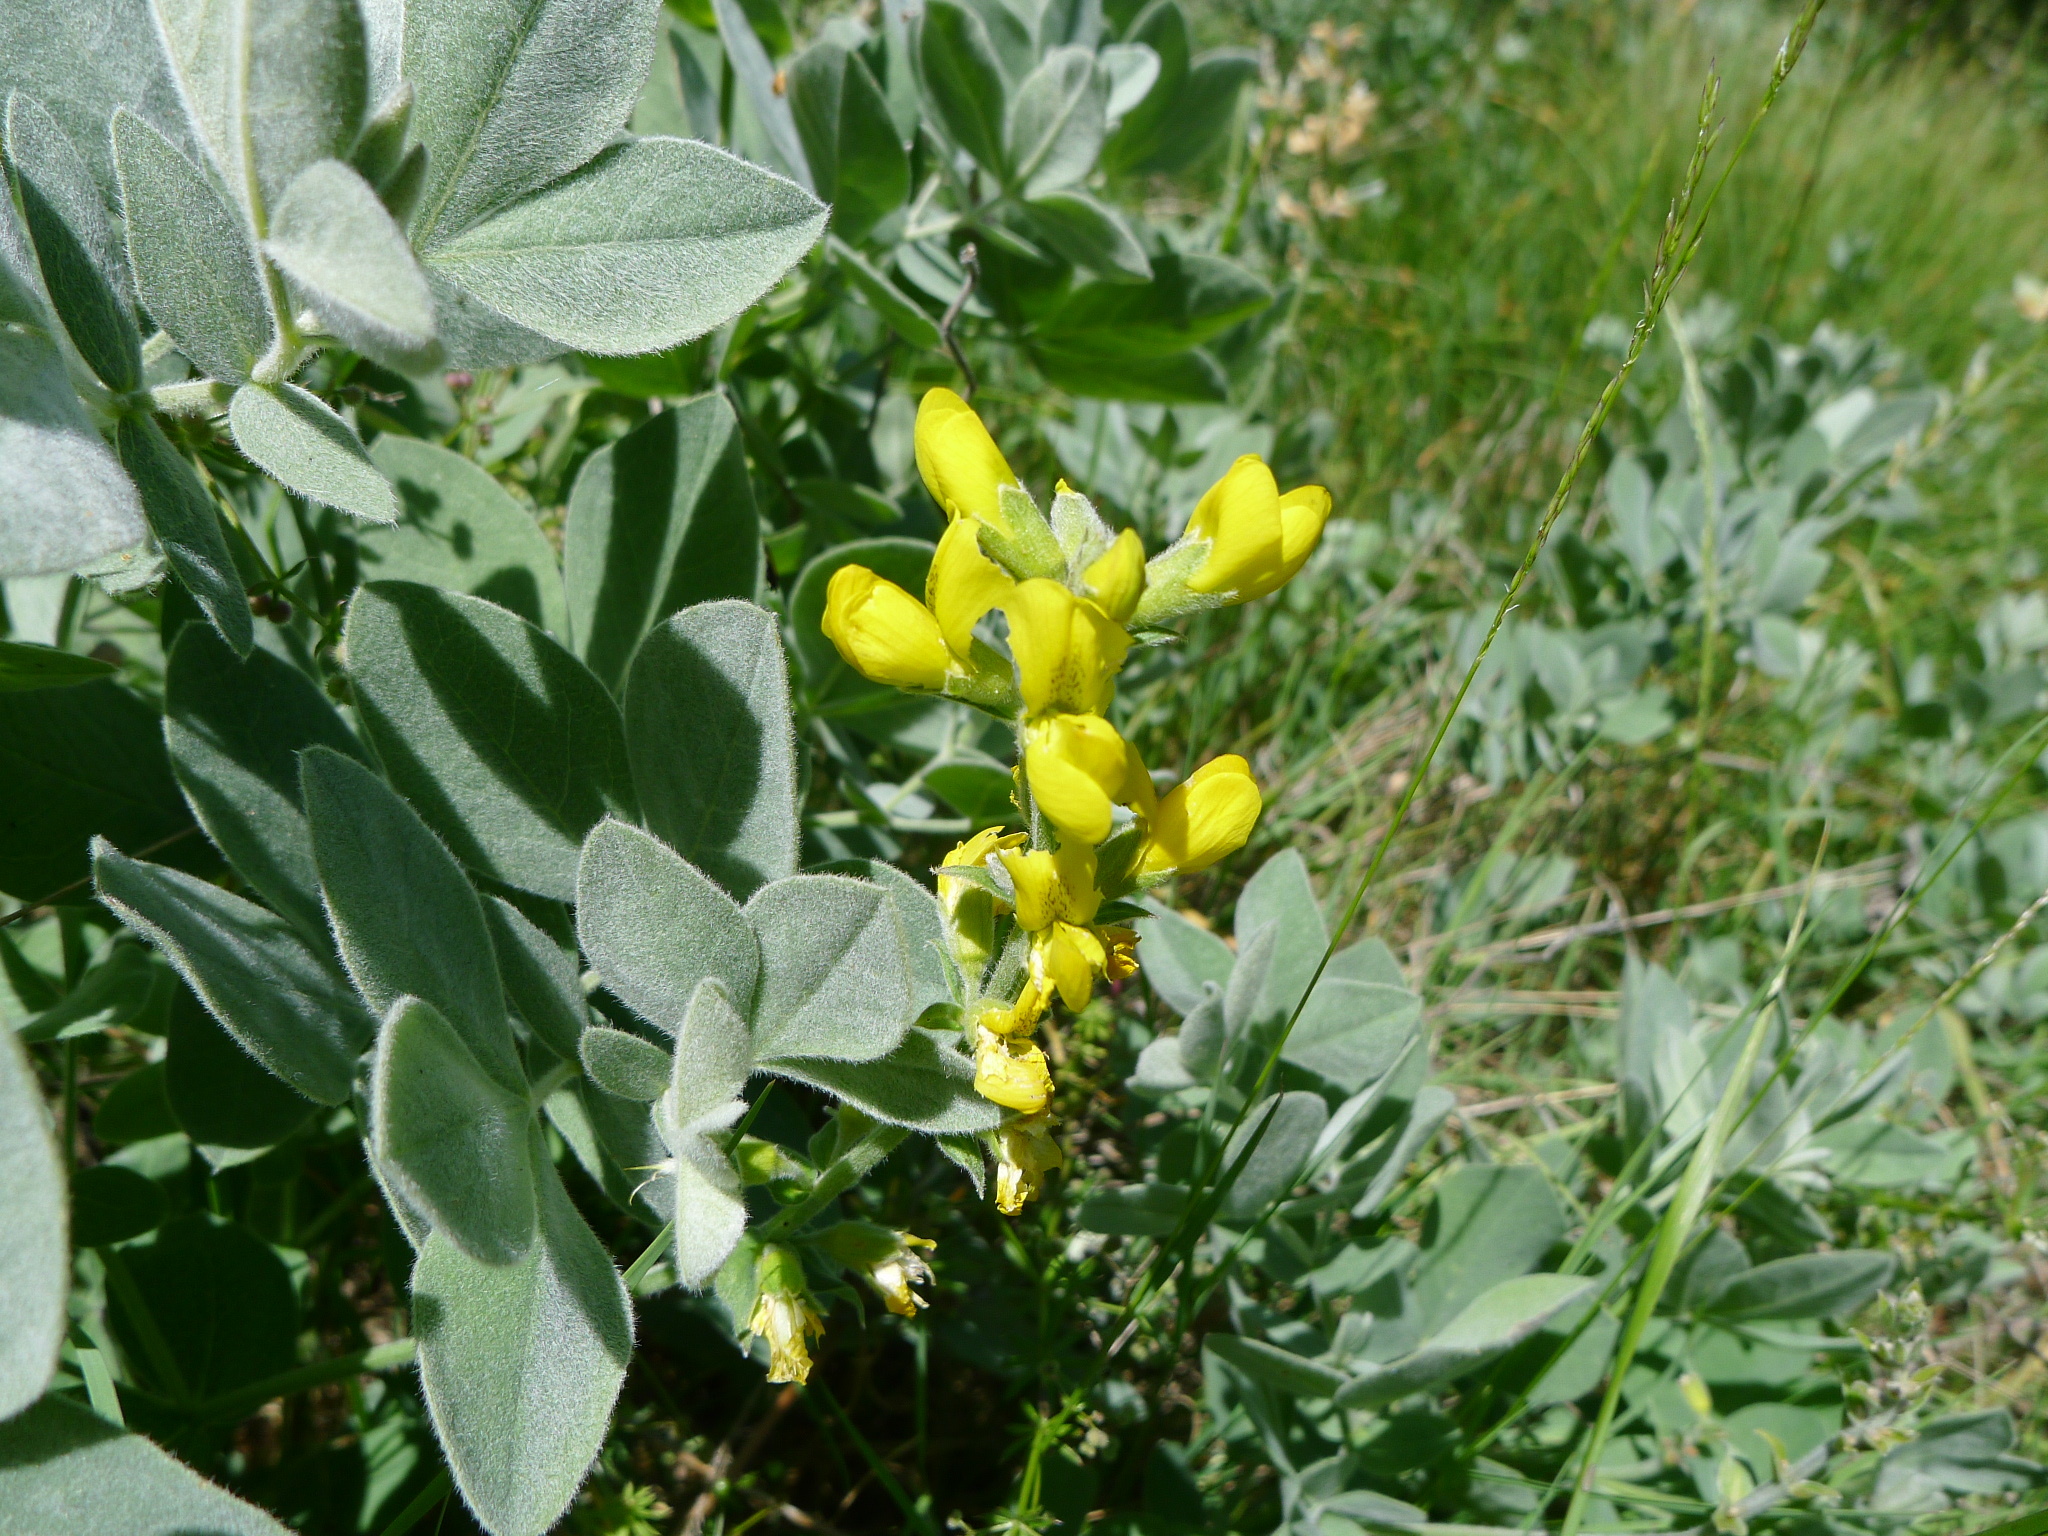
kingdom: Plantae
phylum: Tracheophyta
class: Magnoliopsida
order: Fabales
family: Fabaceae
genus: Thermopsis
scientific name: Thermopsis californica
